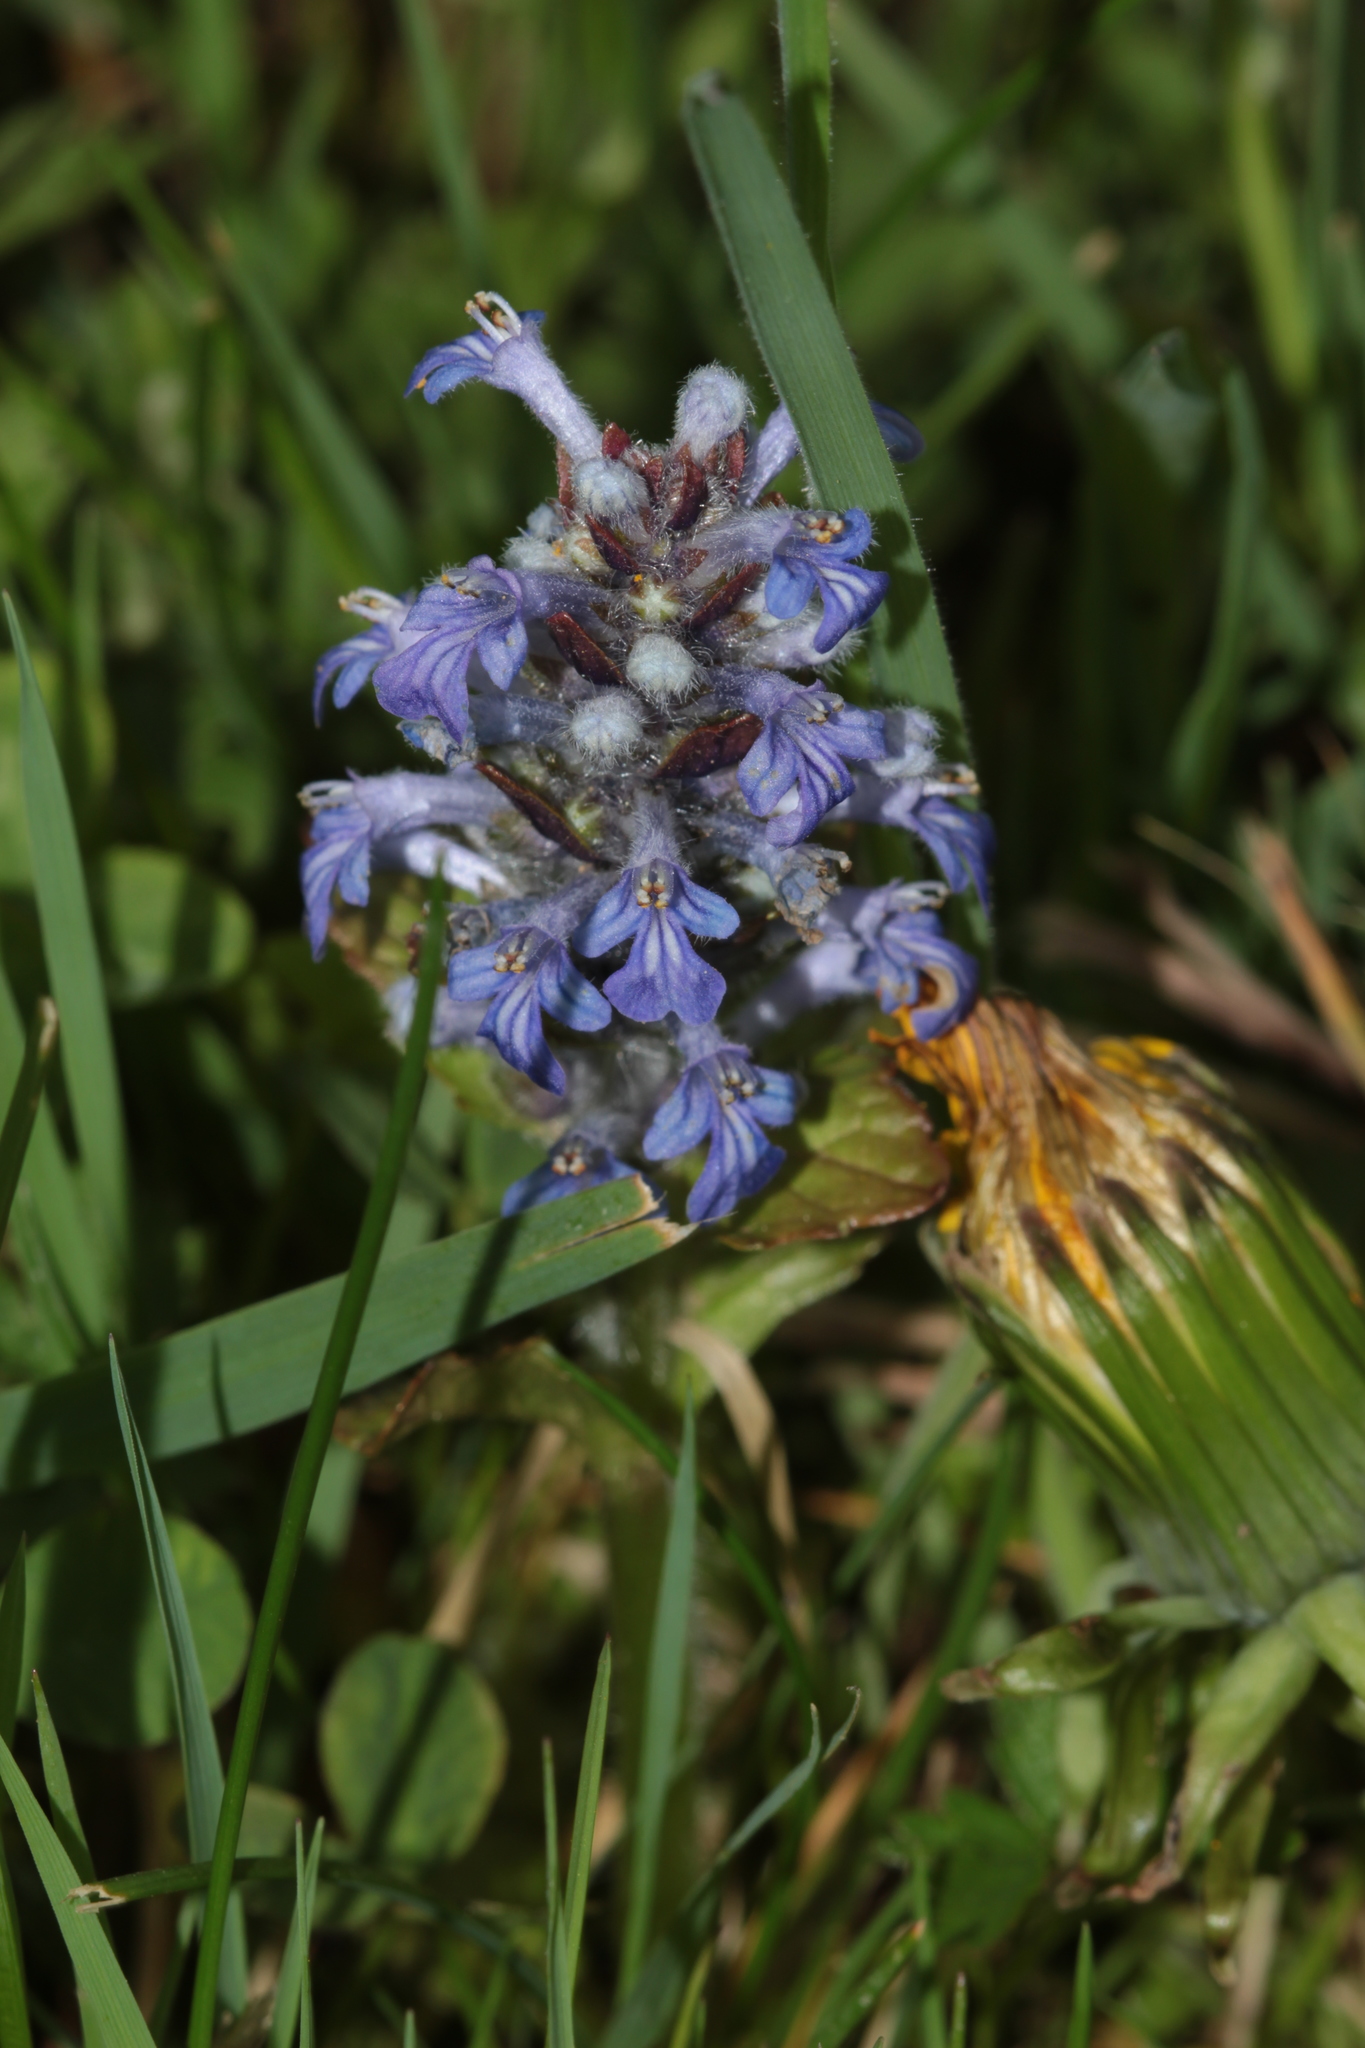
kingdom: Plantae
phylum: Tracheophyta
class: Magnoliopsida
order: Lamiales
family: Lamiaceae
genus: Ajuga
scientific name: Ajuga reptans
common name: Bugle
